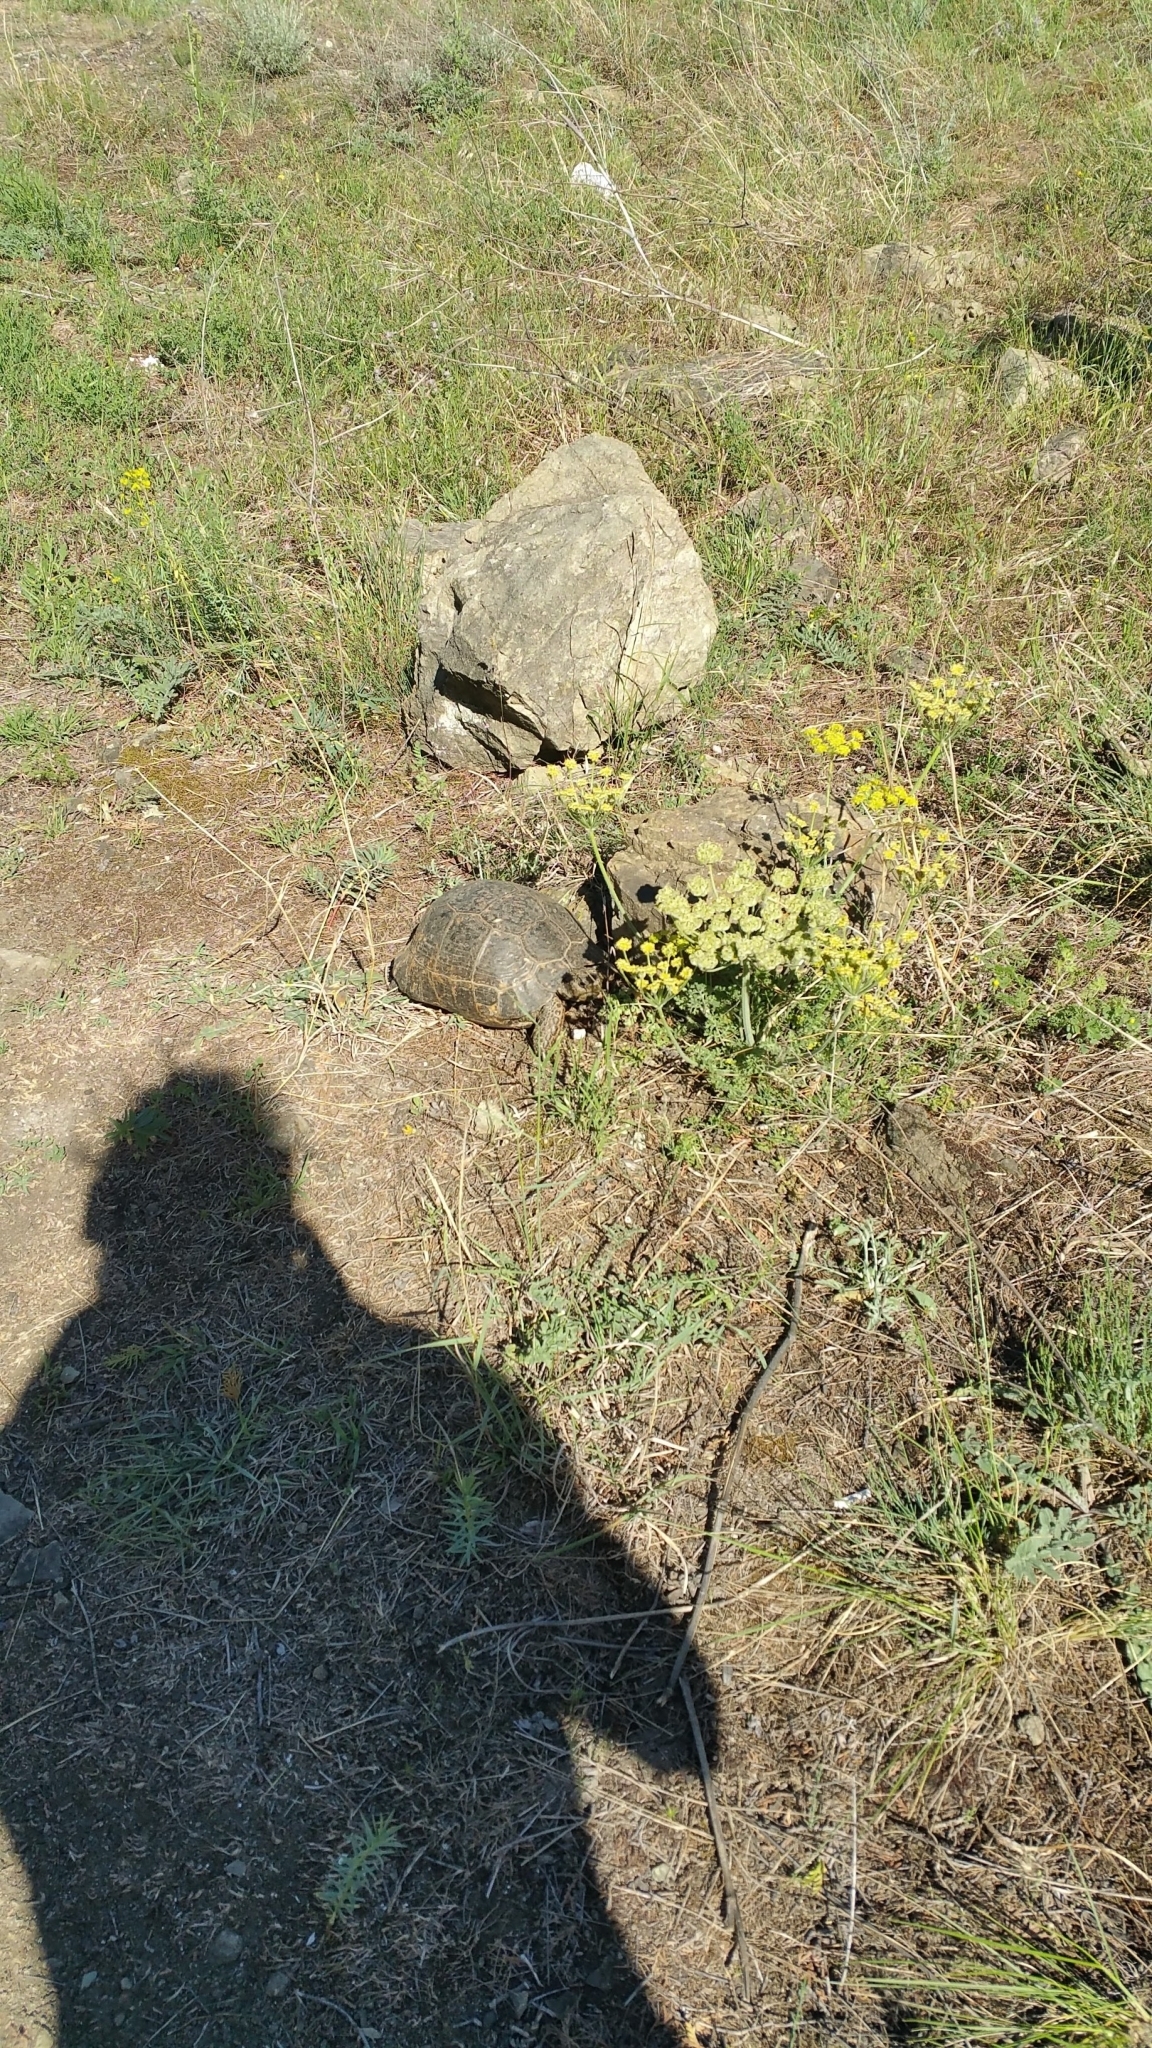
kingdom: Animalia
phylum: Chordata
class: Testudines
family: Testudinidae
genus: Testudo
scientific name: Testudo graeca
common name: Common tortoise
